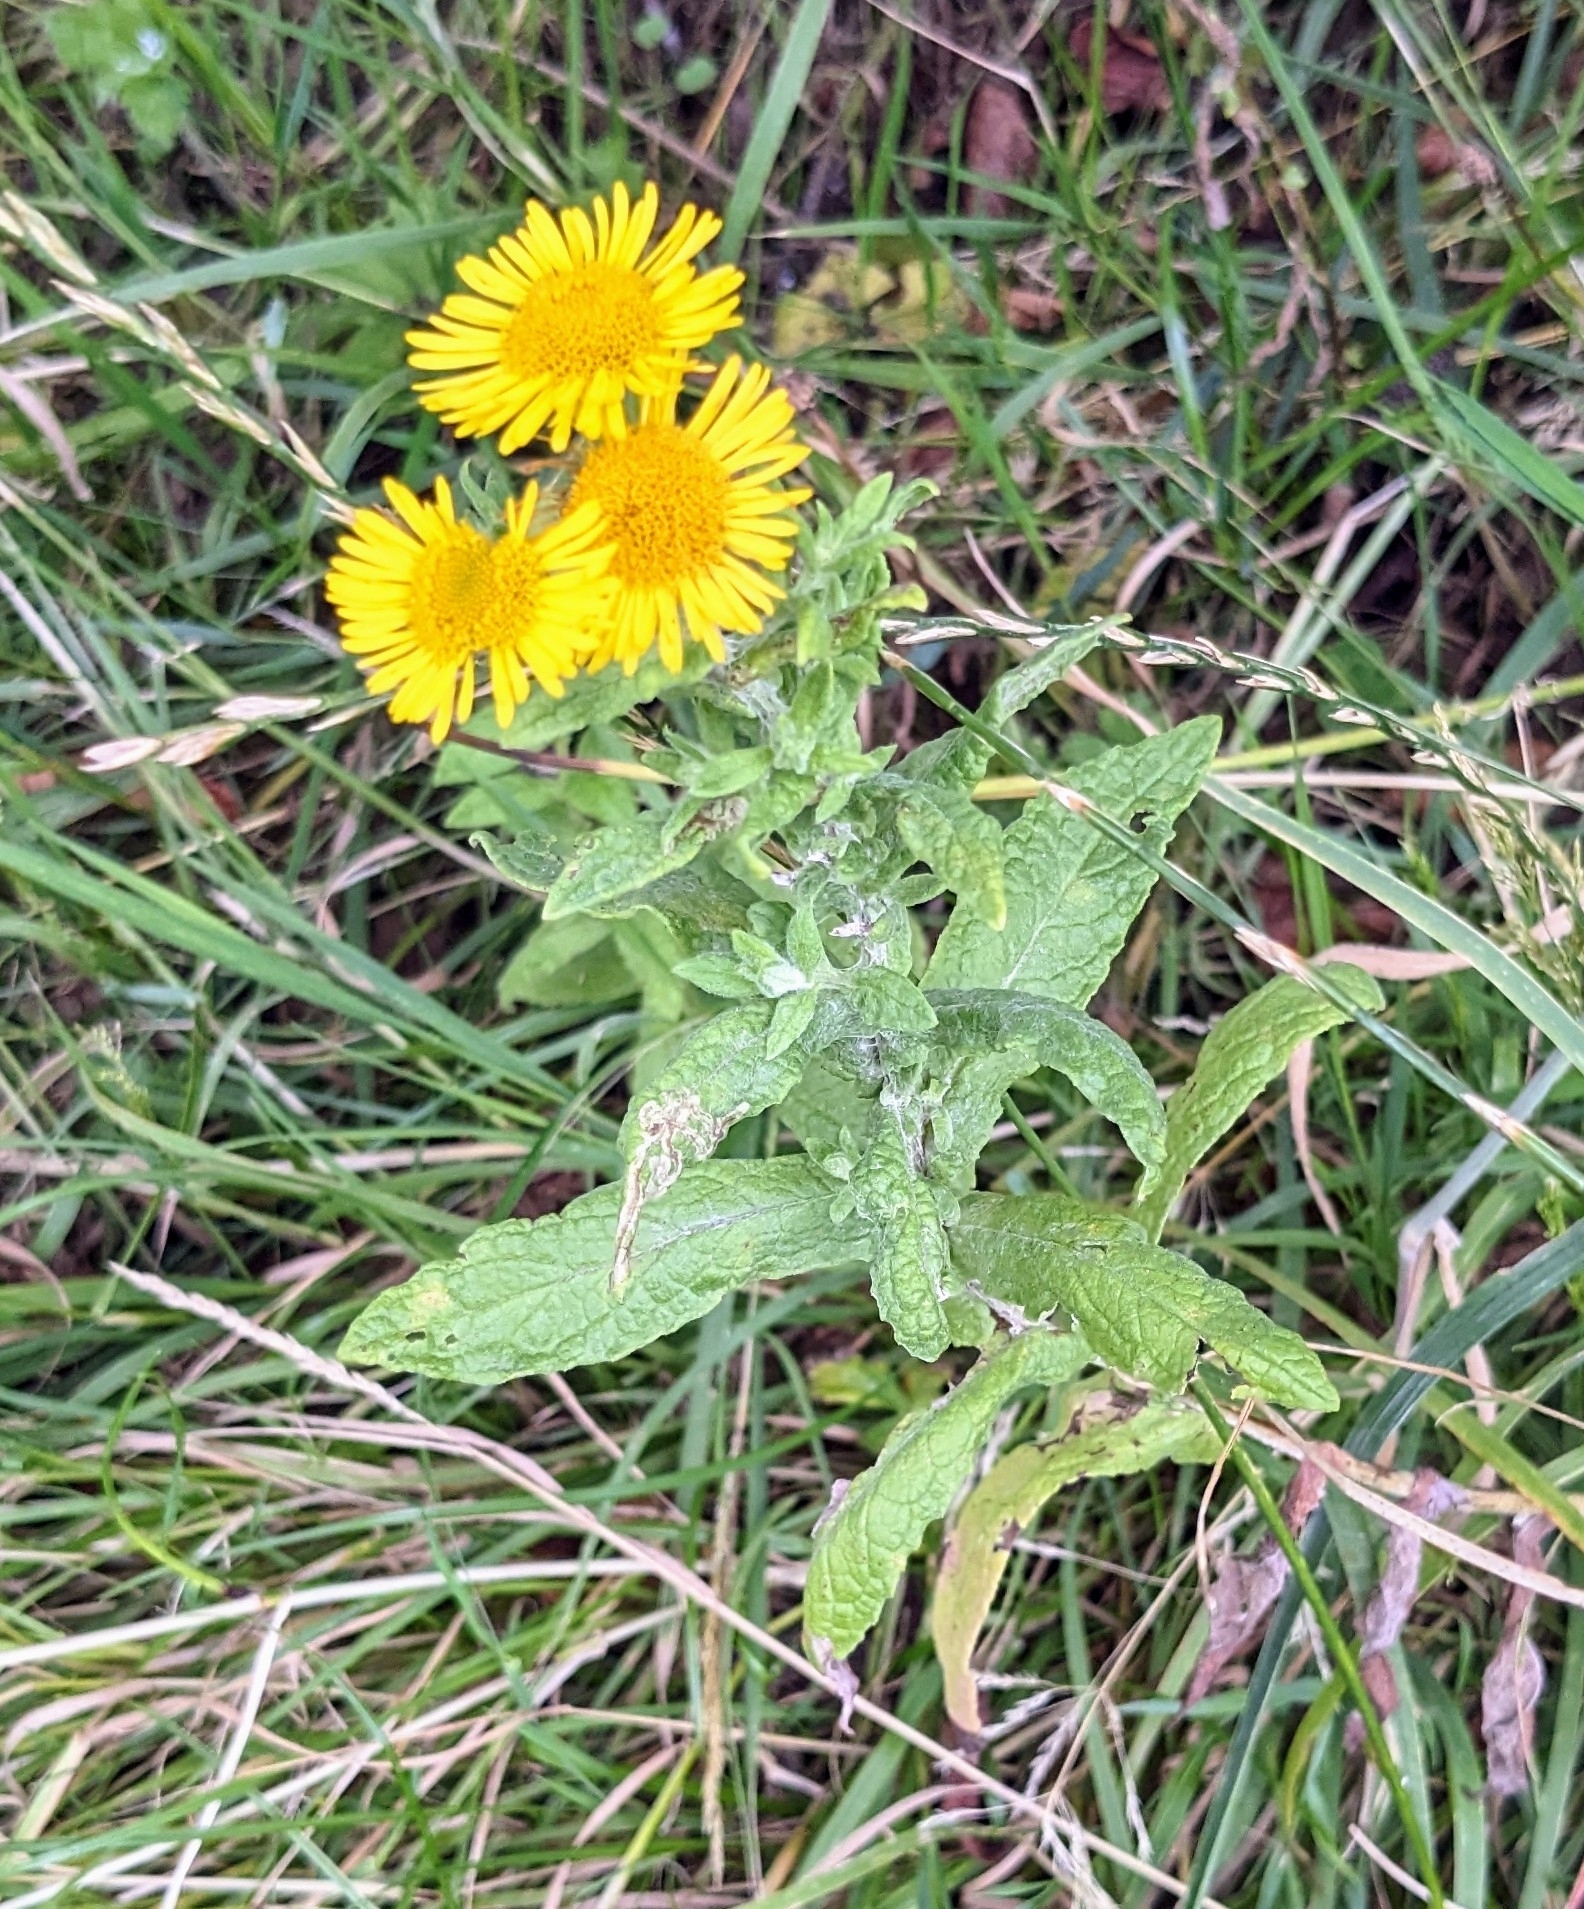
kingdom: Plantae
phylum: Tracheophyta
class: Magnoliopsida
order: Asterales
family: Asteraceae
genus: Pulicaria
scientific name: Pulicaria dysenterica
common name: Common fleabane
